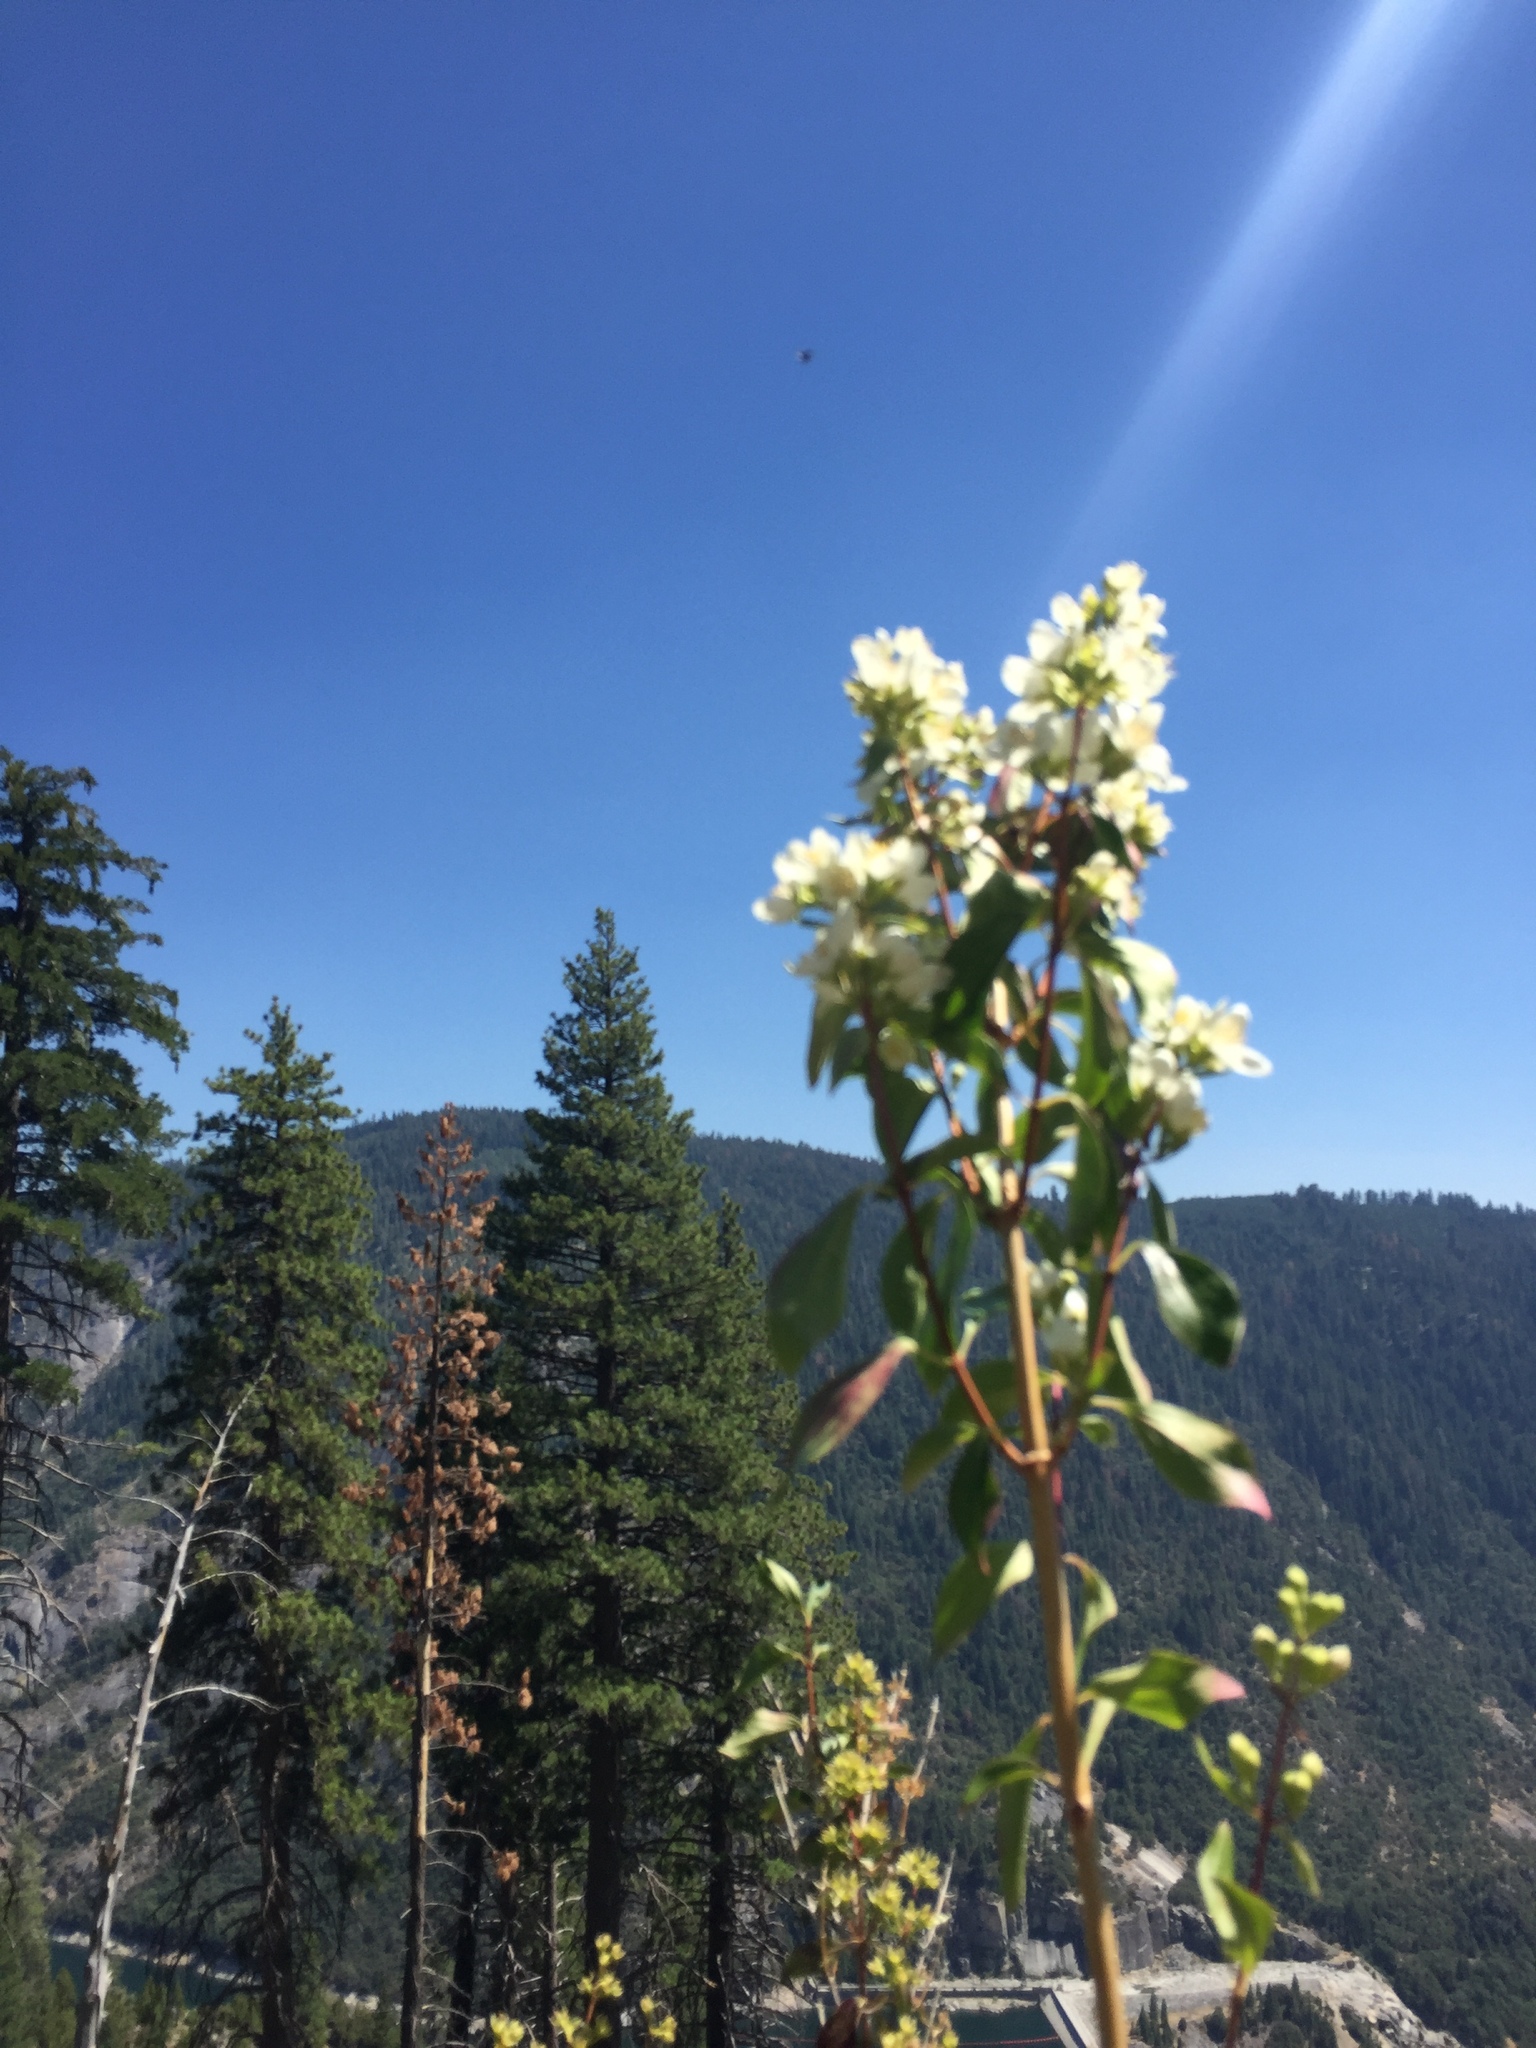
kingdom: Plantae
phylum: Tracheophyta
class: Magnoliopsida
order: Cornales
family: Hydrangeaceae
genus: Philadelphus
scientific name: Philadelphus lewisii
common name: Lewis's mock orange
